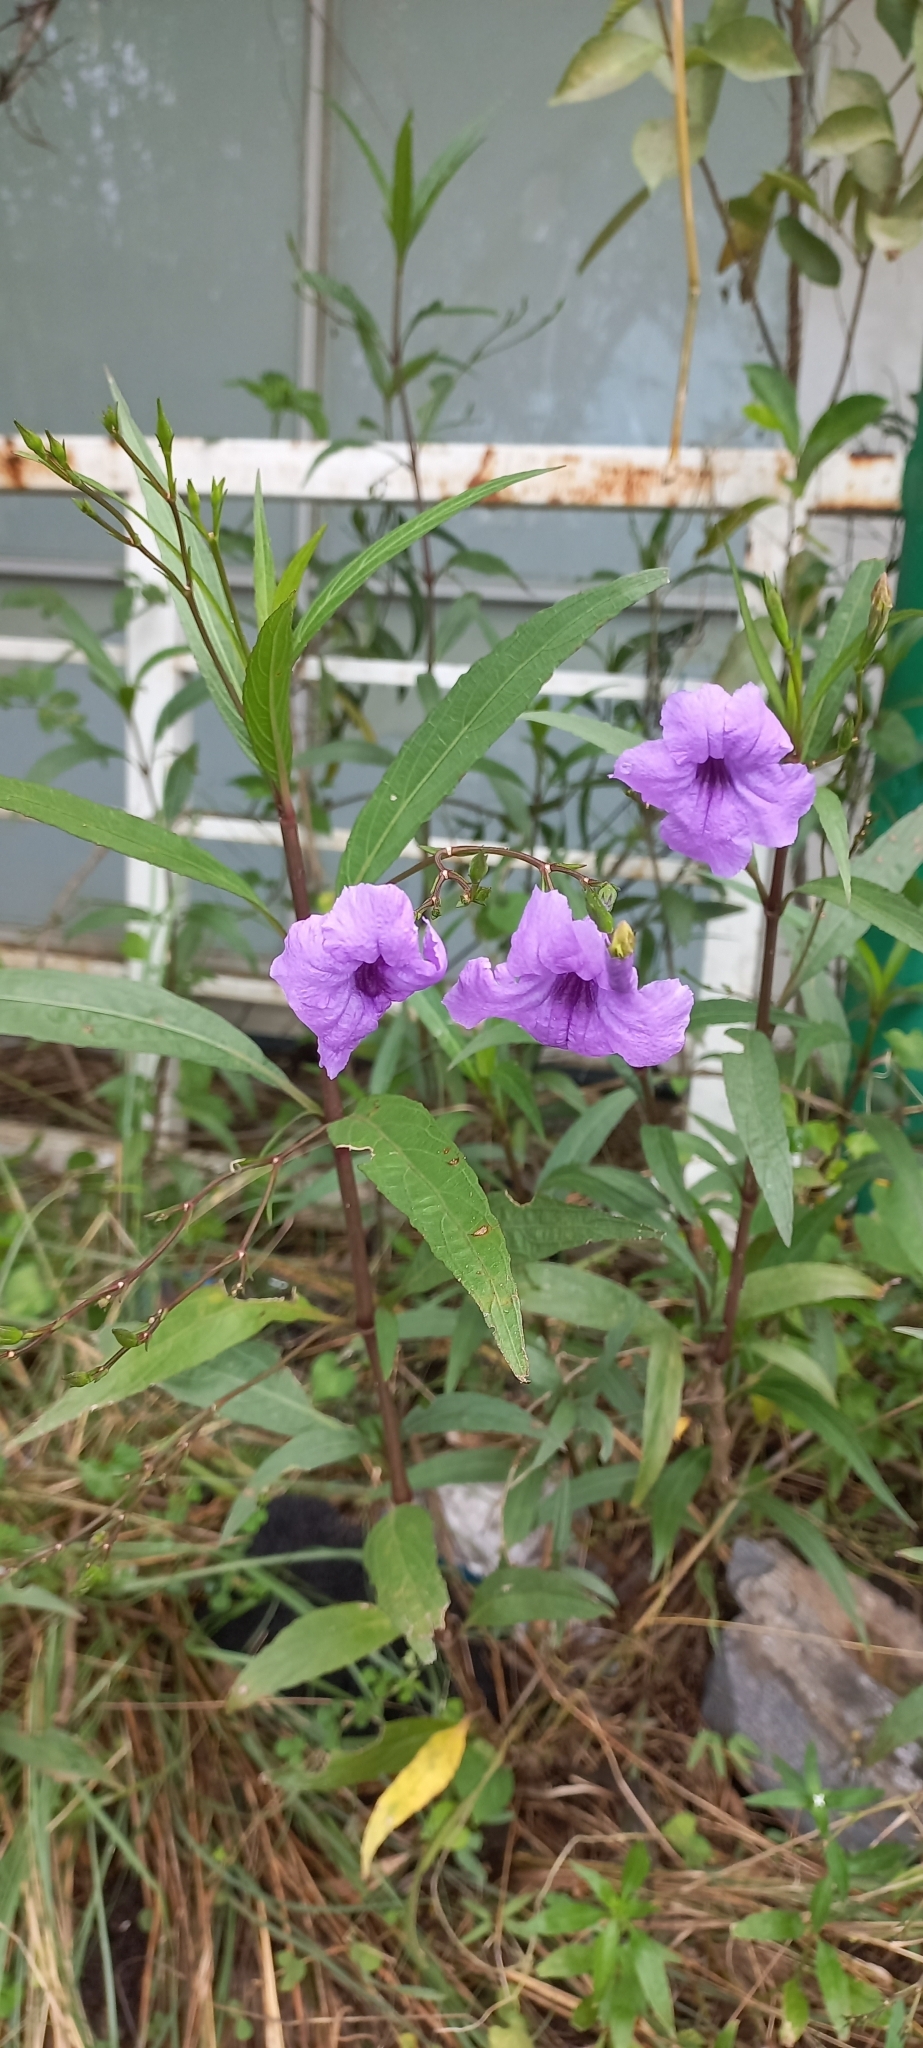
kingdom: Plantae
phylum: Tracheophyta
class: Magnoliopsida
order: Lamiales
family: Acanthaceae
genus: Ruellia
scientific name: Ruellia simplex
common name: Softseed wild petunia
